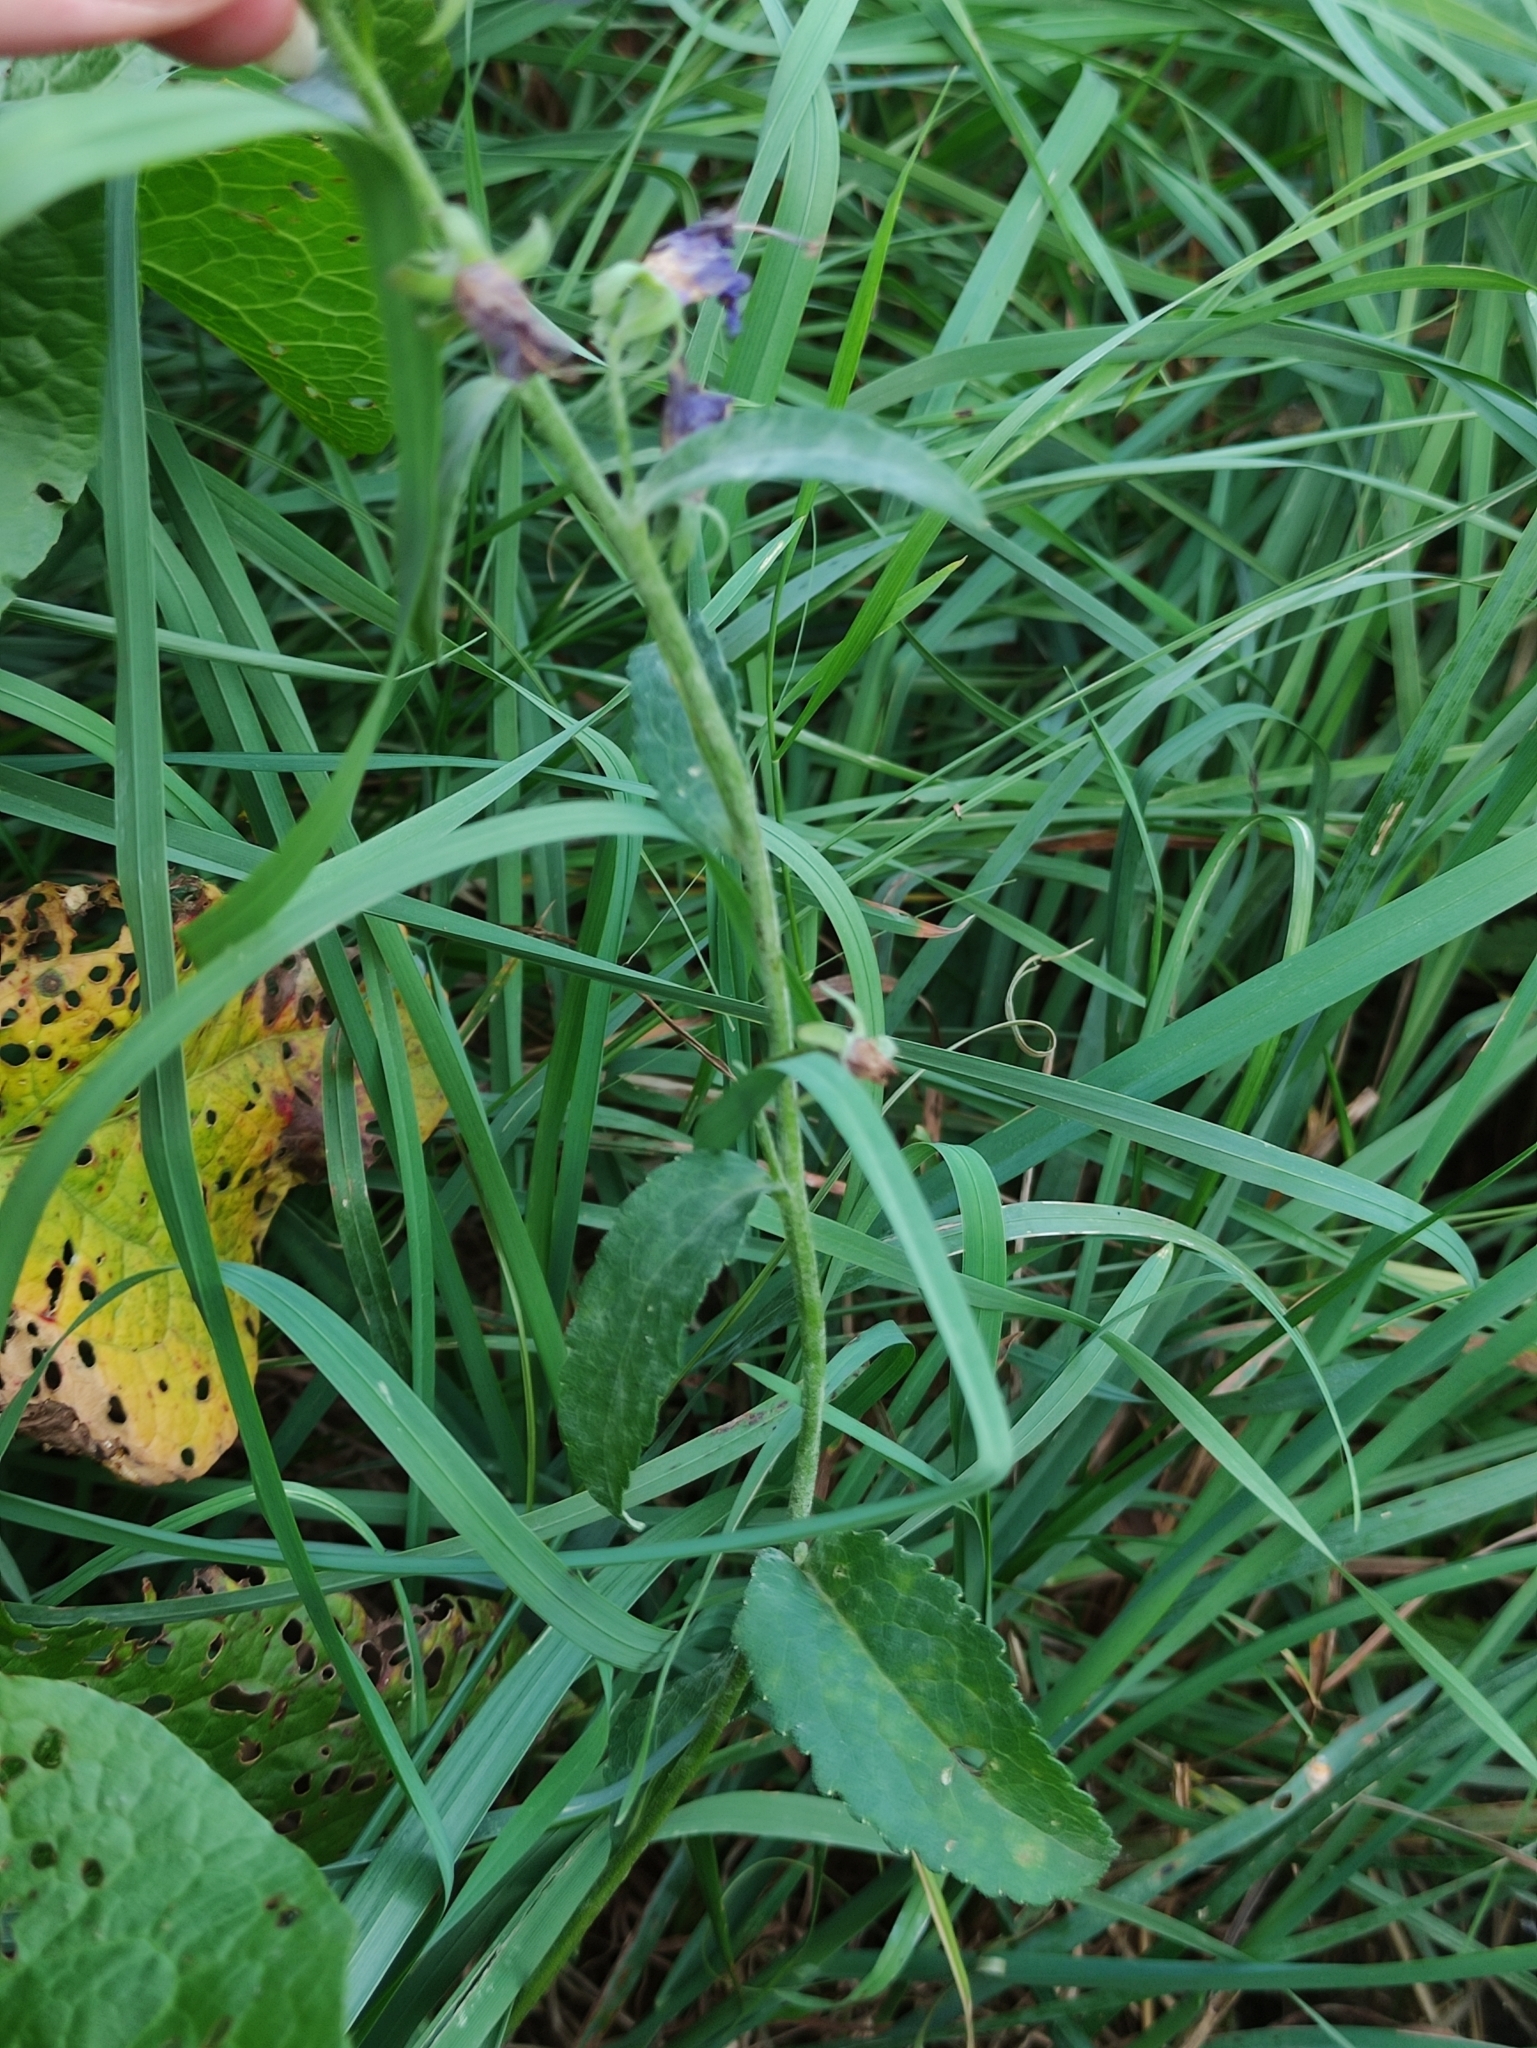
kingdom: Plantae
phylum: Tracheophyta
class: Magnoliopsida
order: Asterales
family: Campanulaceae
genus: Campanula
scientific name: Campanula rapunculoides
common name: Creeping bellflower
